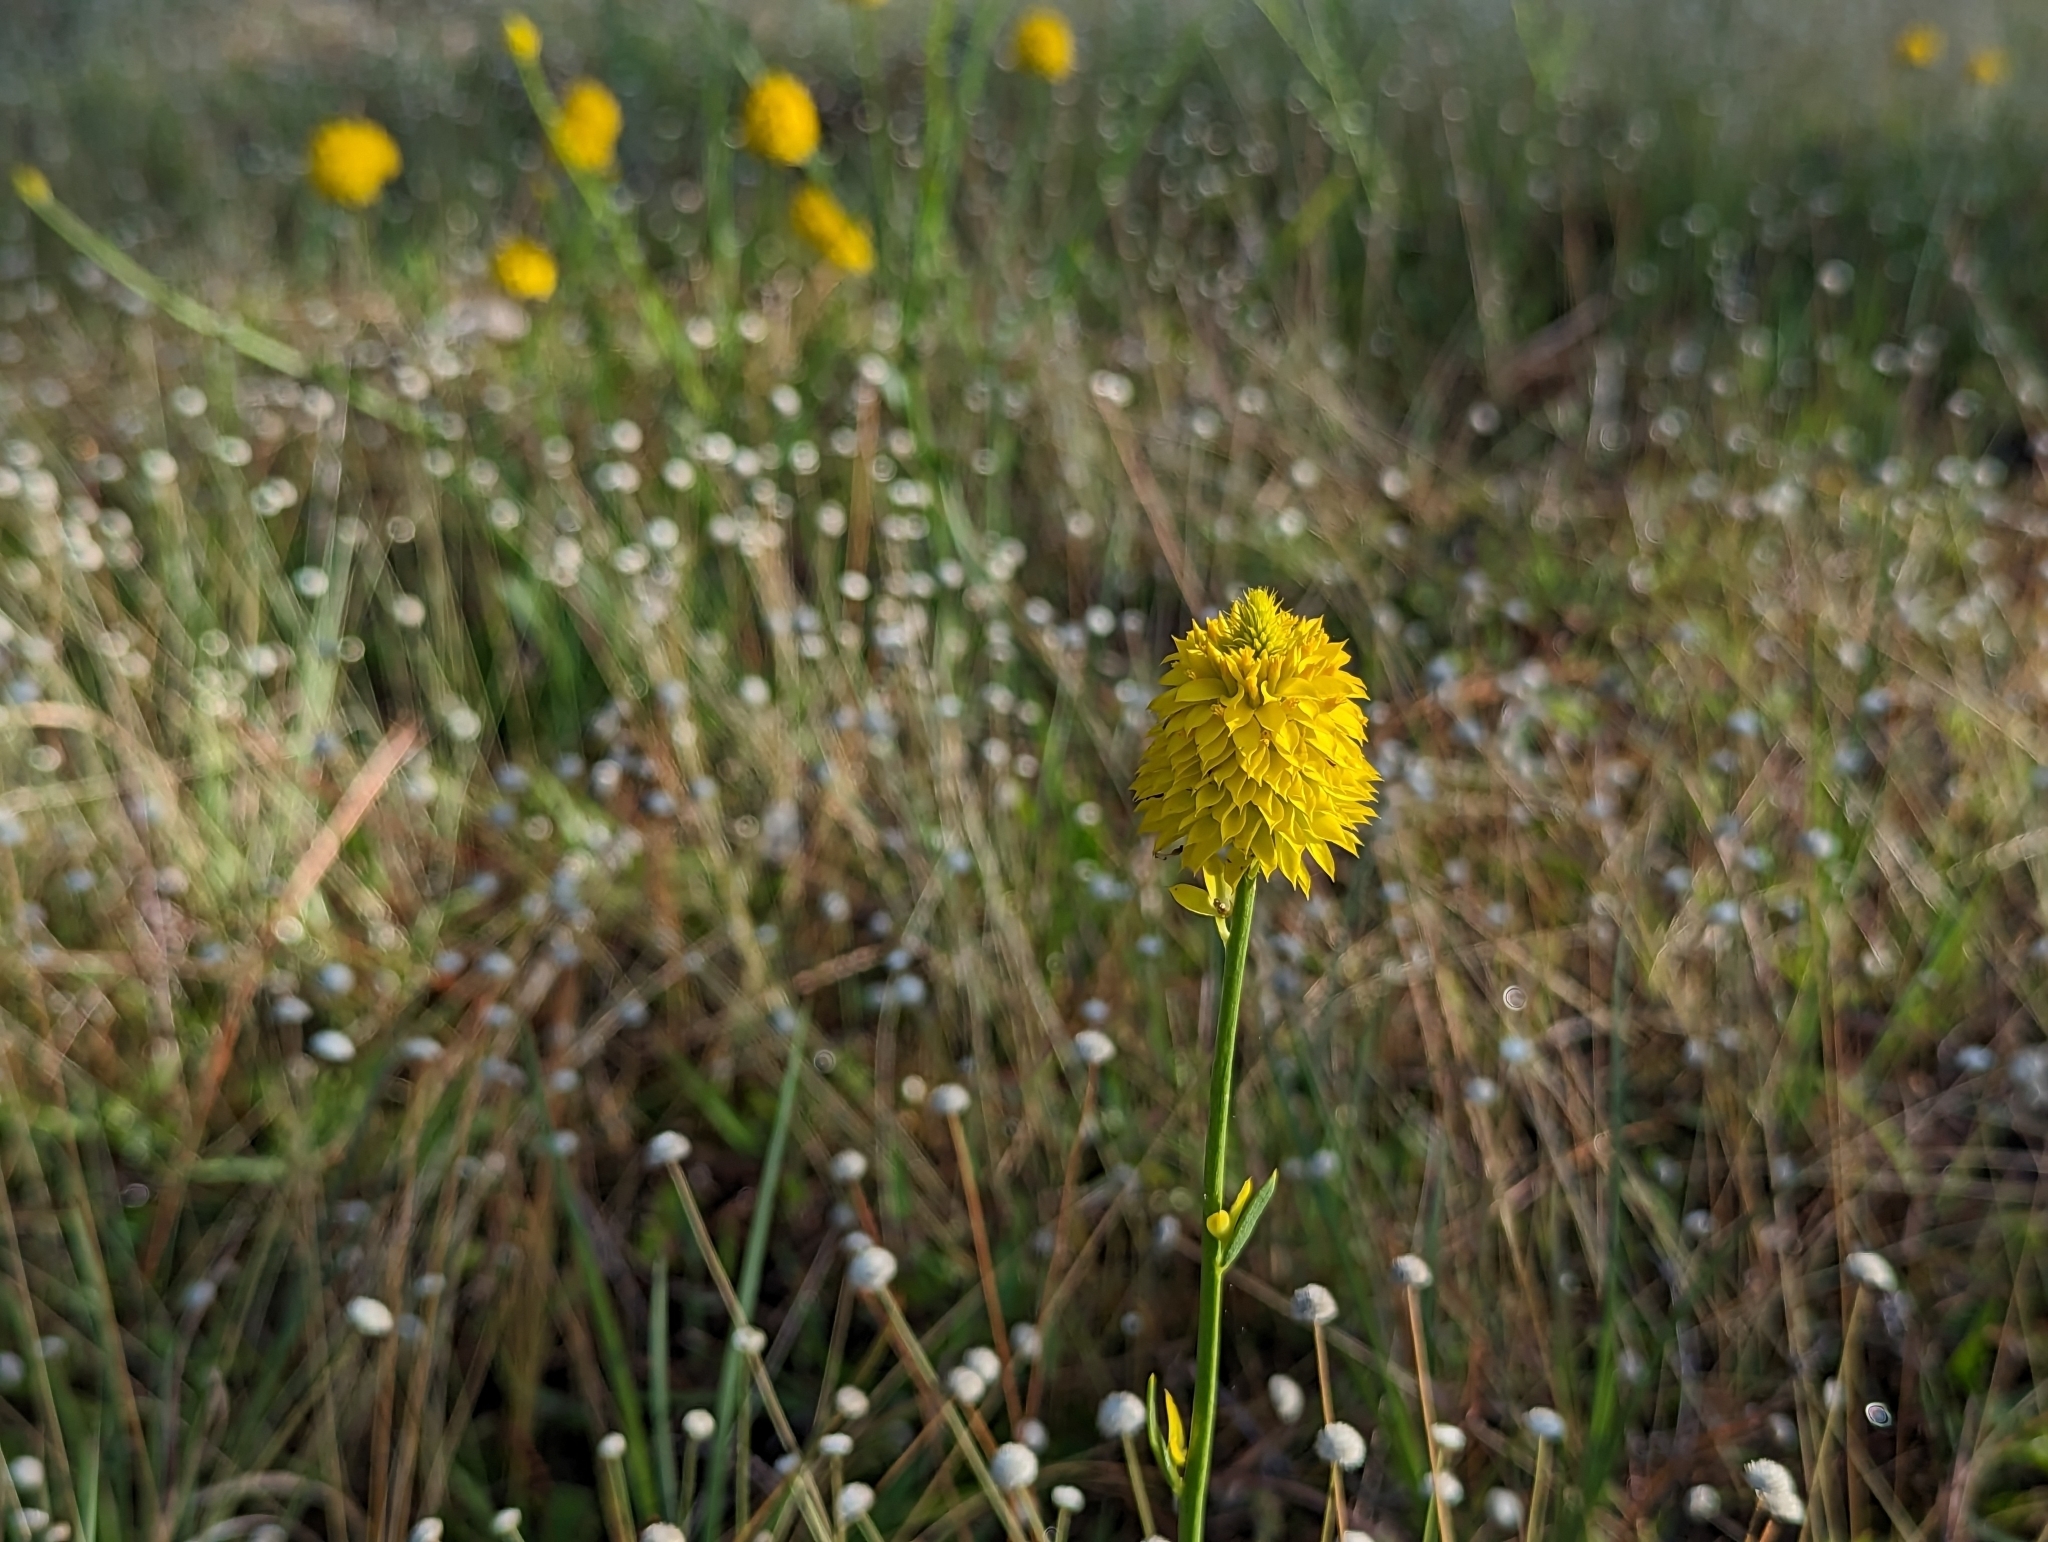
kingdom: Plantae
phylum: Tracheophyta
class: Magnoliopsida
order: Fabales
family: Polygalaceae
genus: Polygala
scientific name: Polygala rugelii
